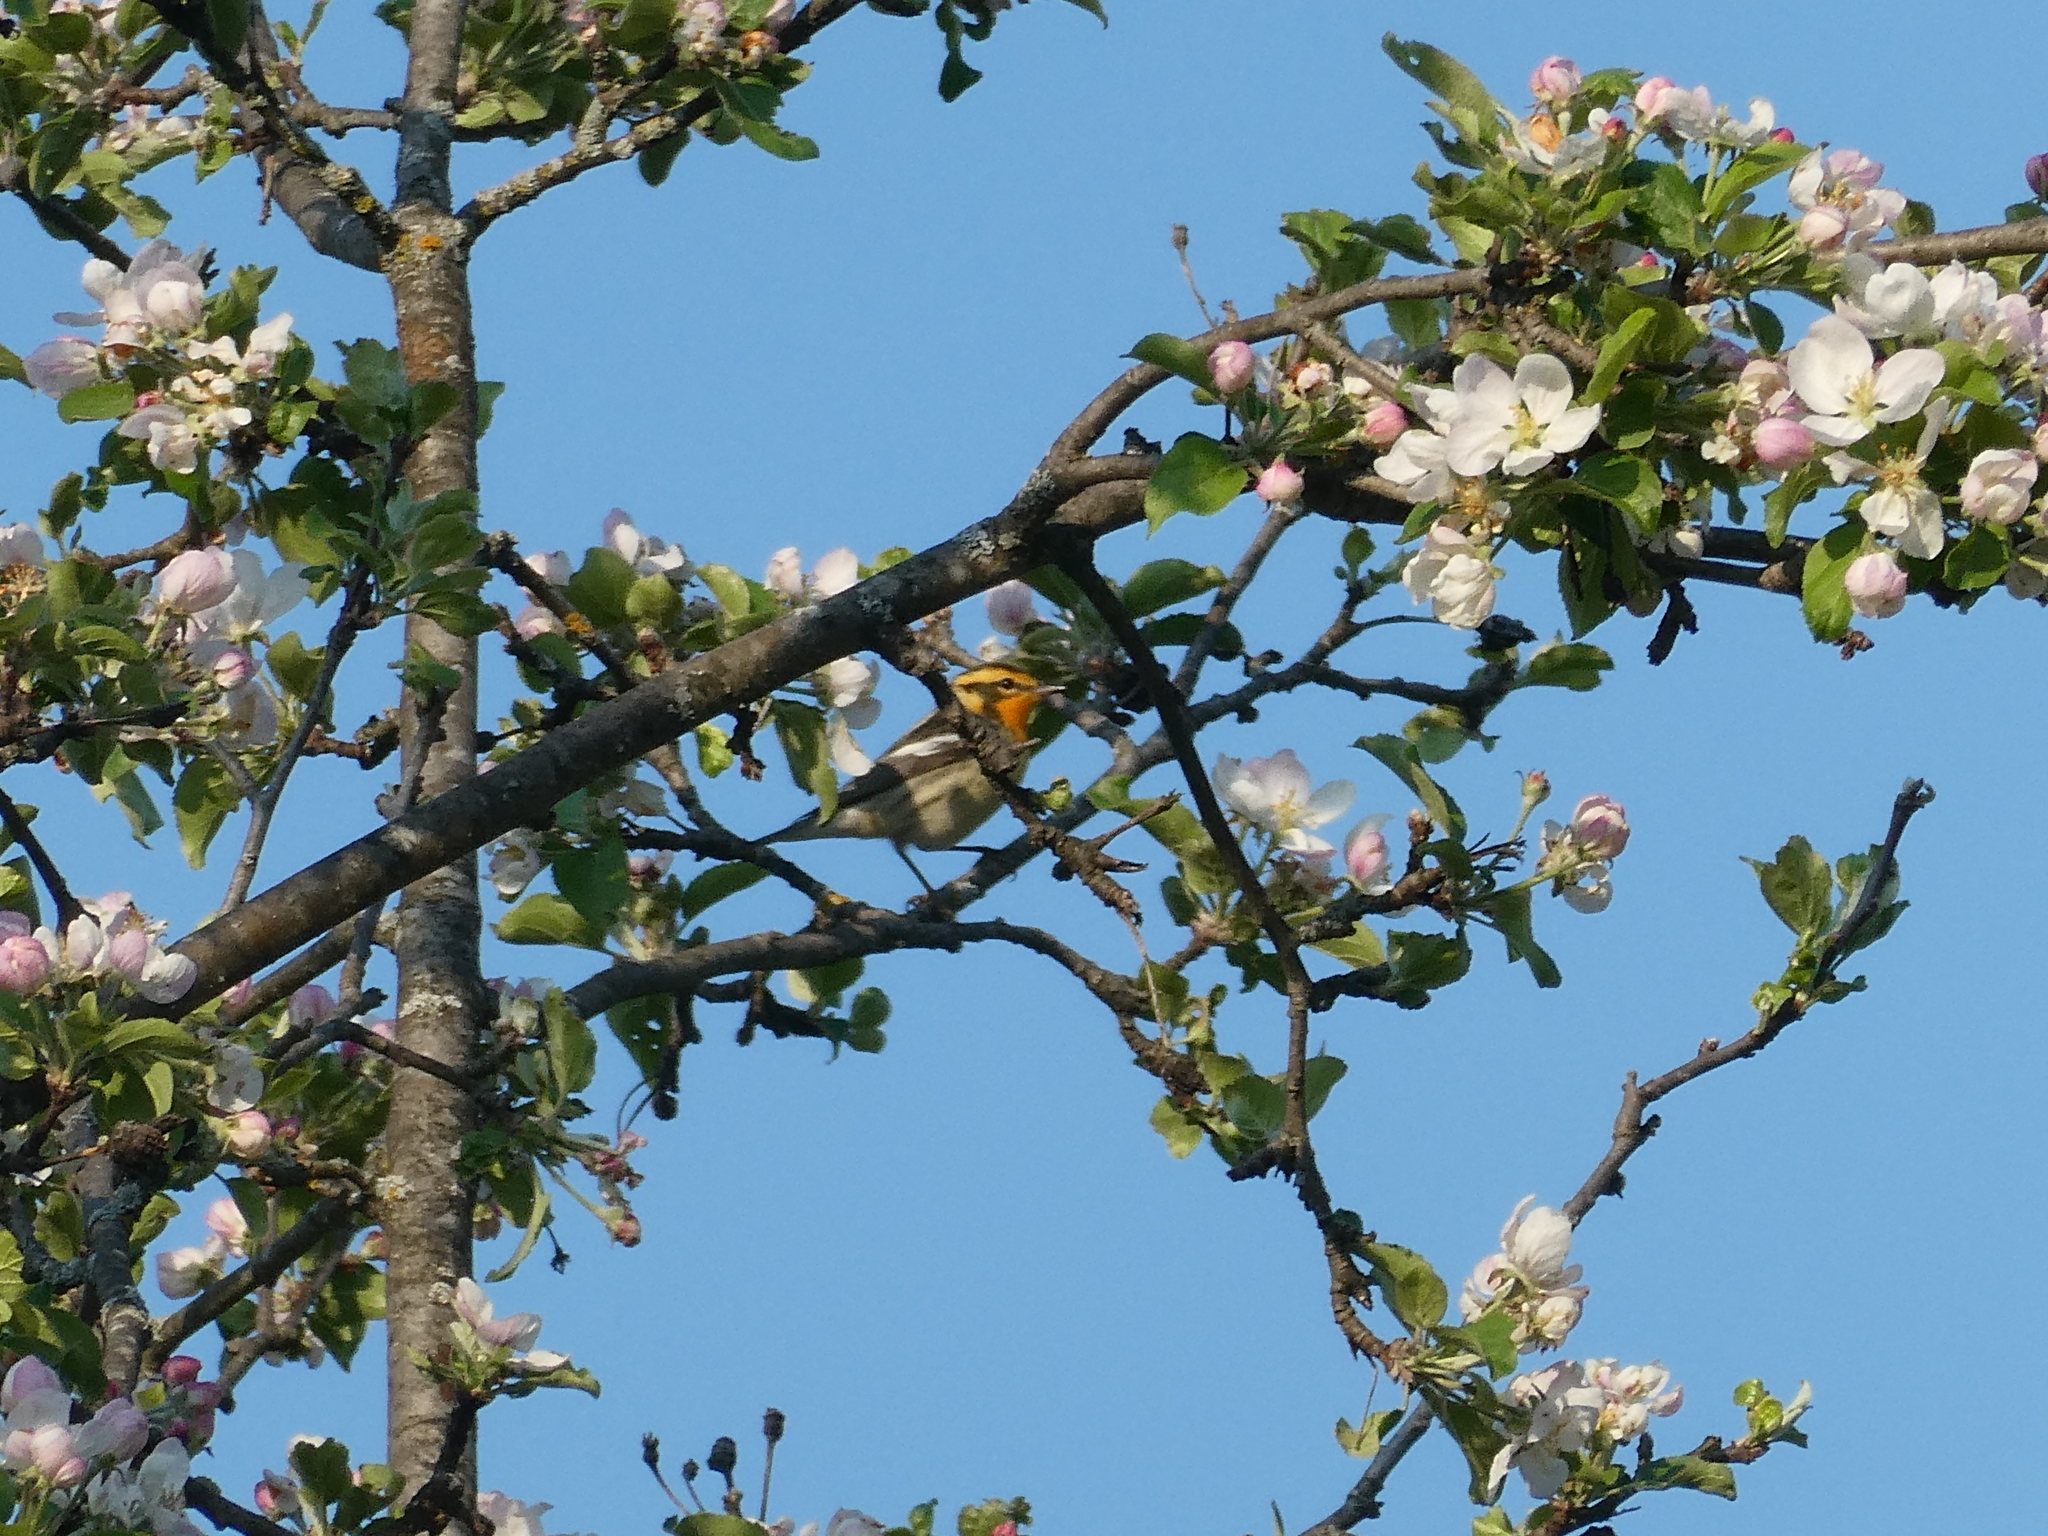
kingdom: Animalia
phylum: Chordata
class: Aves
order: Passeriformes
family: Parulidae
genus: Setophaga
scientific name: Setophaga fusca
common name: Blackburnian warbler
